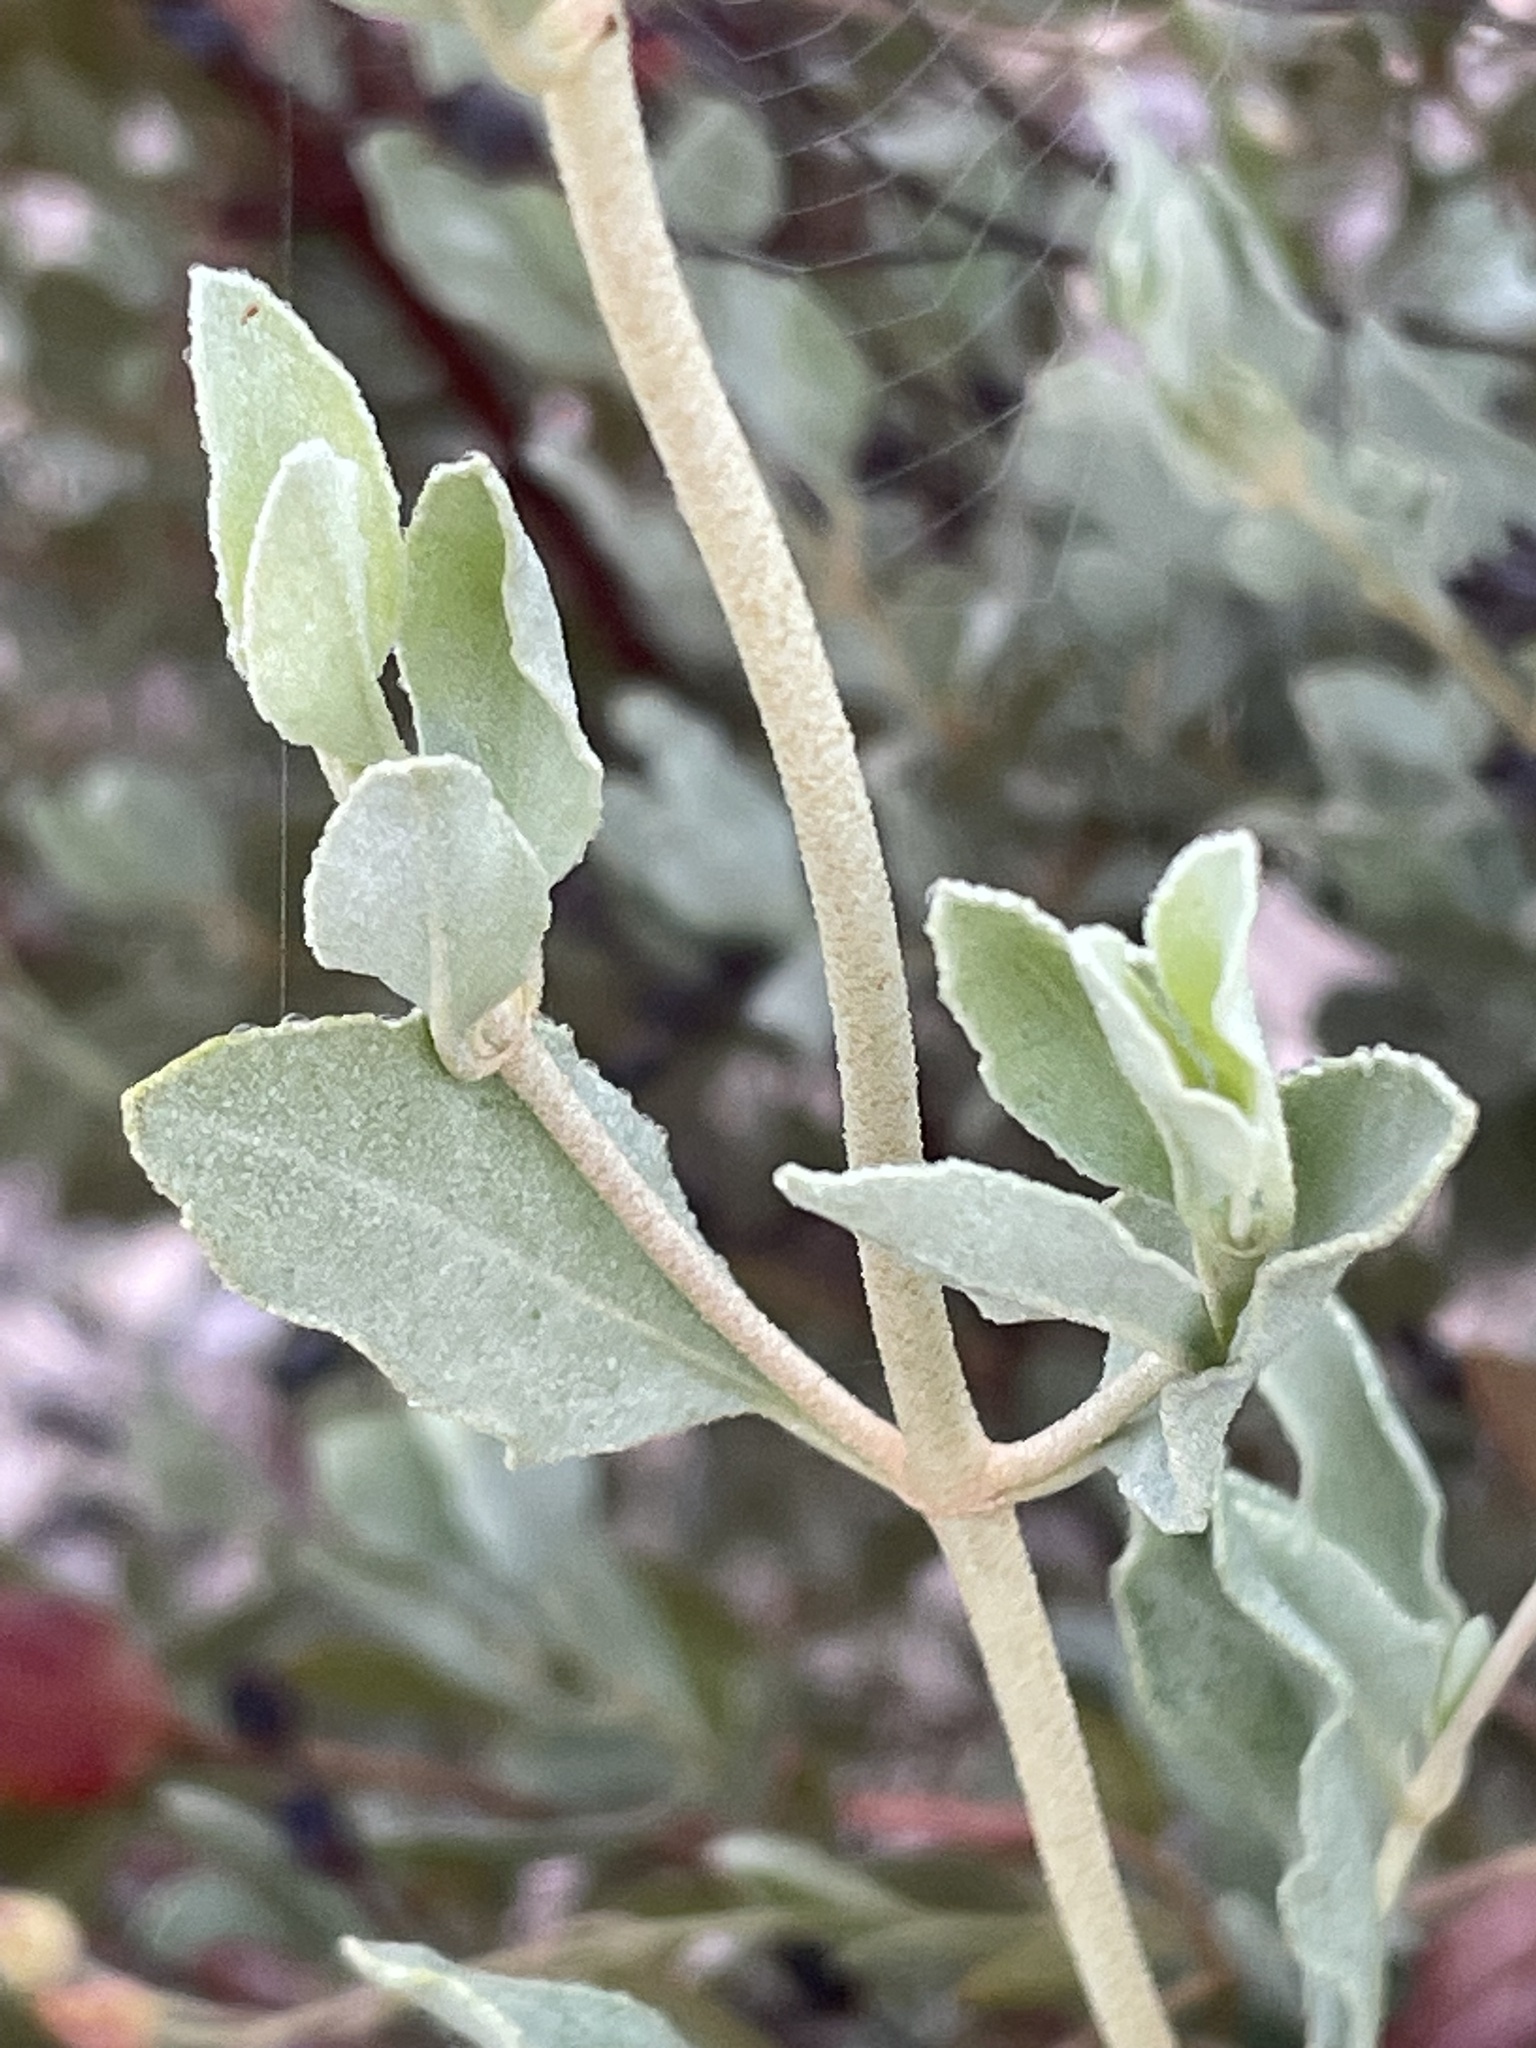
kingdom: Plantae
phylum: Tracheophyta
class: Magnoliopsida
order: Malvales
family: Cistaceae
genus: Halimium
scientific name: Halimium halimifolium
